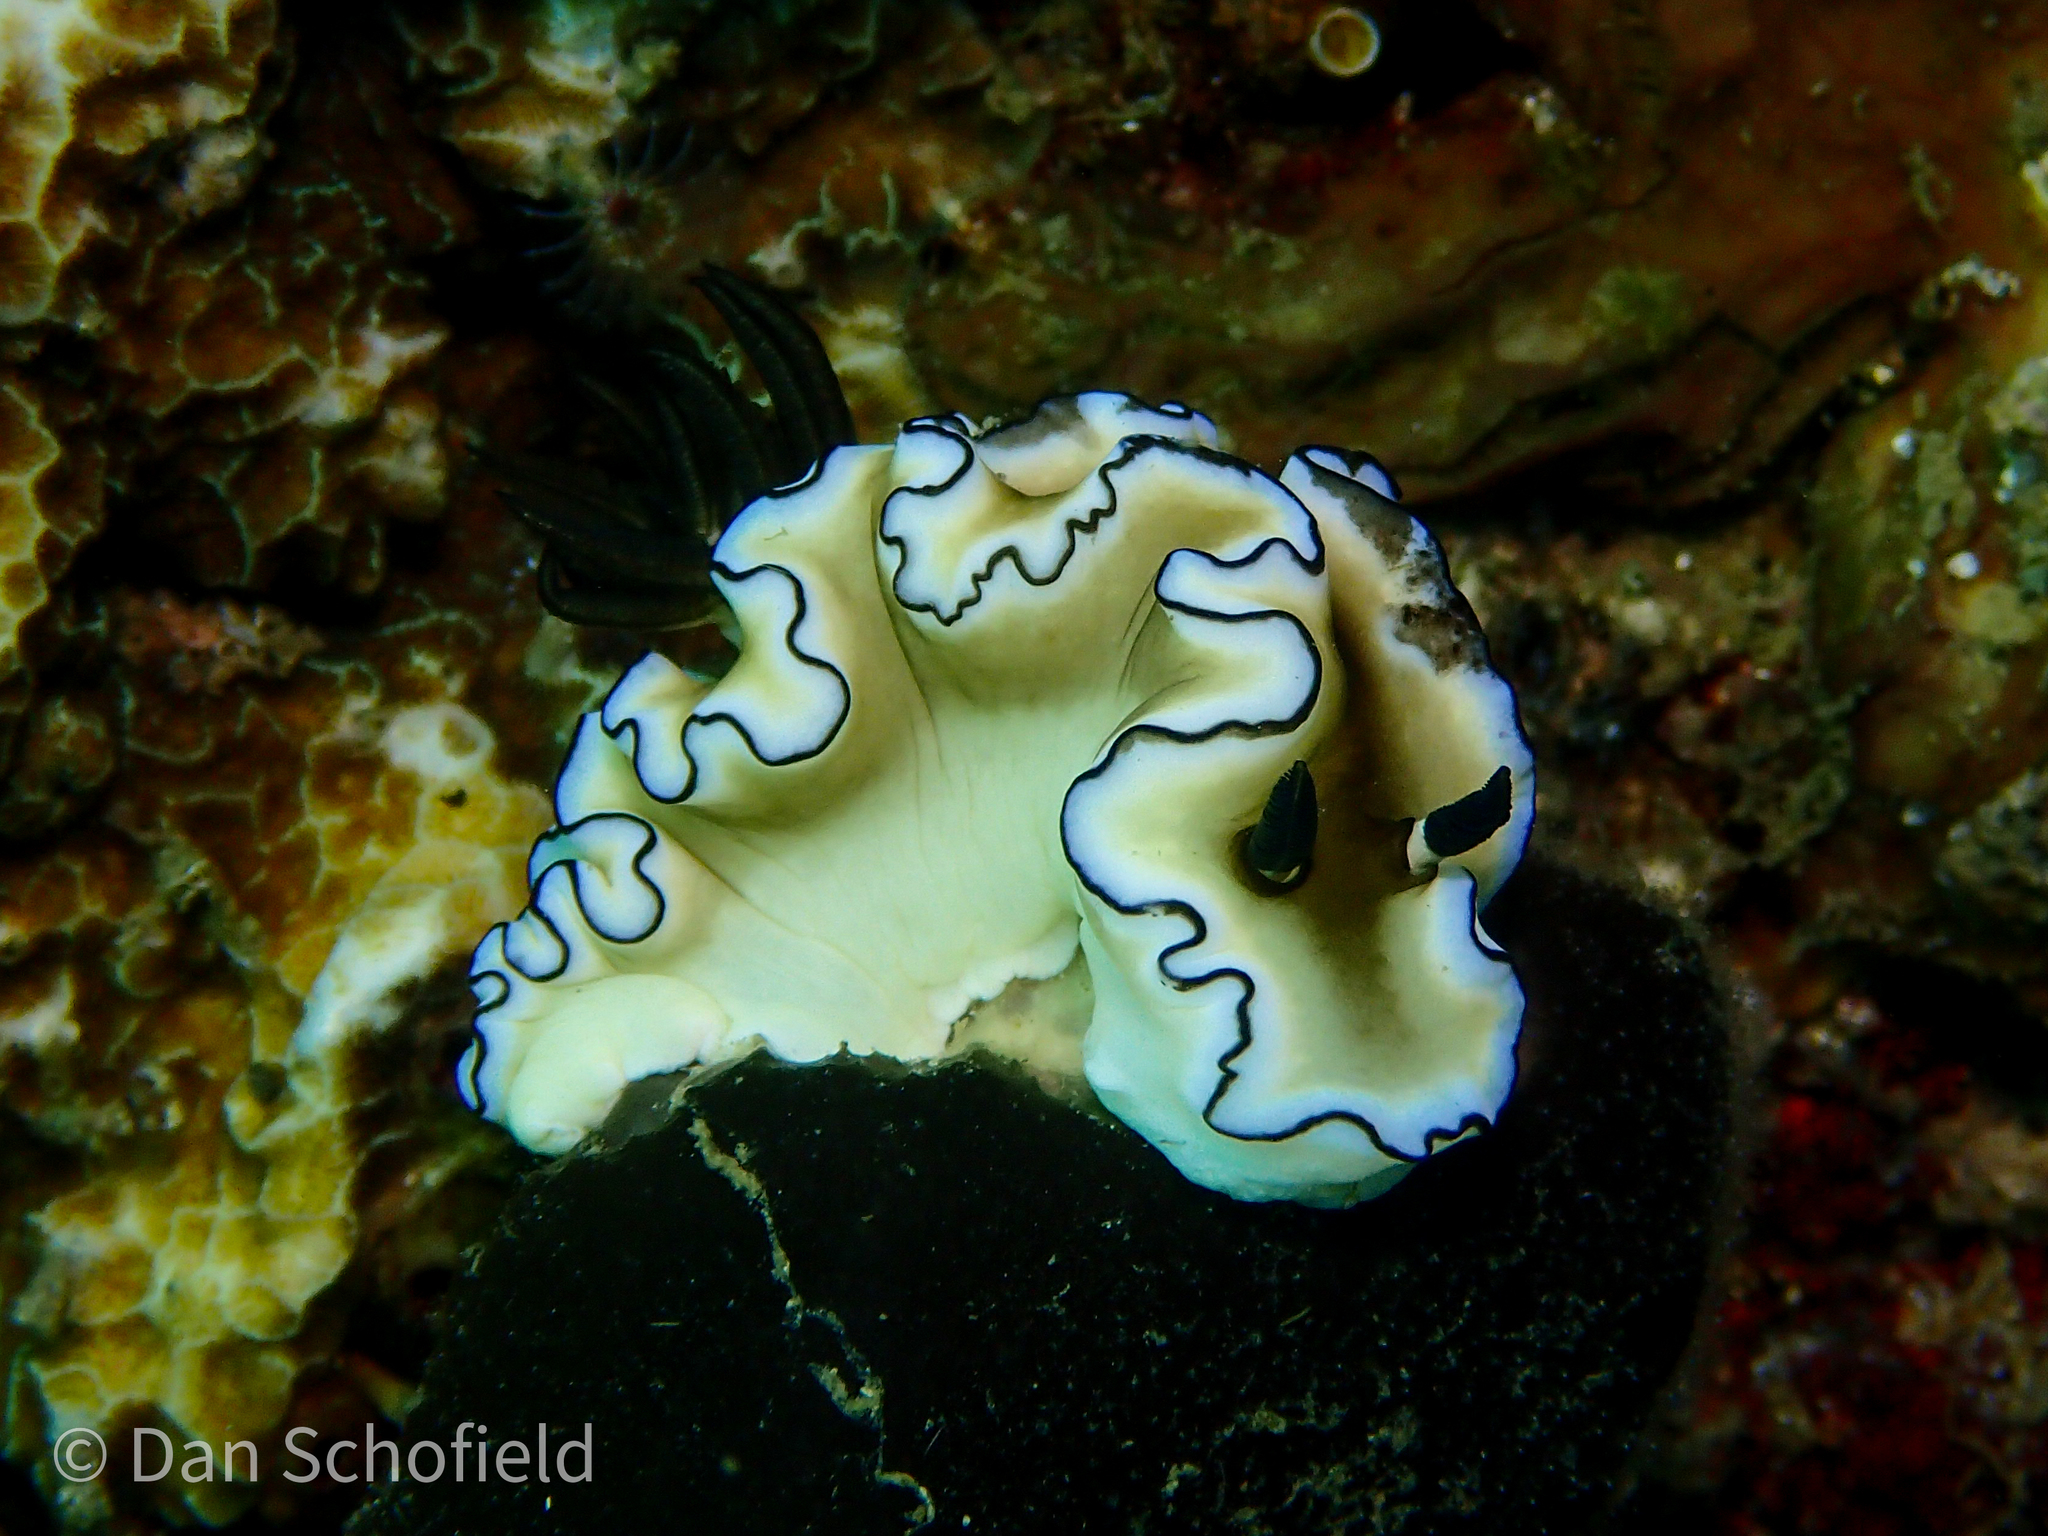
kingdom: Animalia
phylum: Mollusca
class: Gastropoda
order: Nudibranchia
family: Chromodorididae
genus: Doriprismatica
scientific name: Doriprismatica atromarginata
